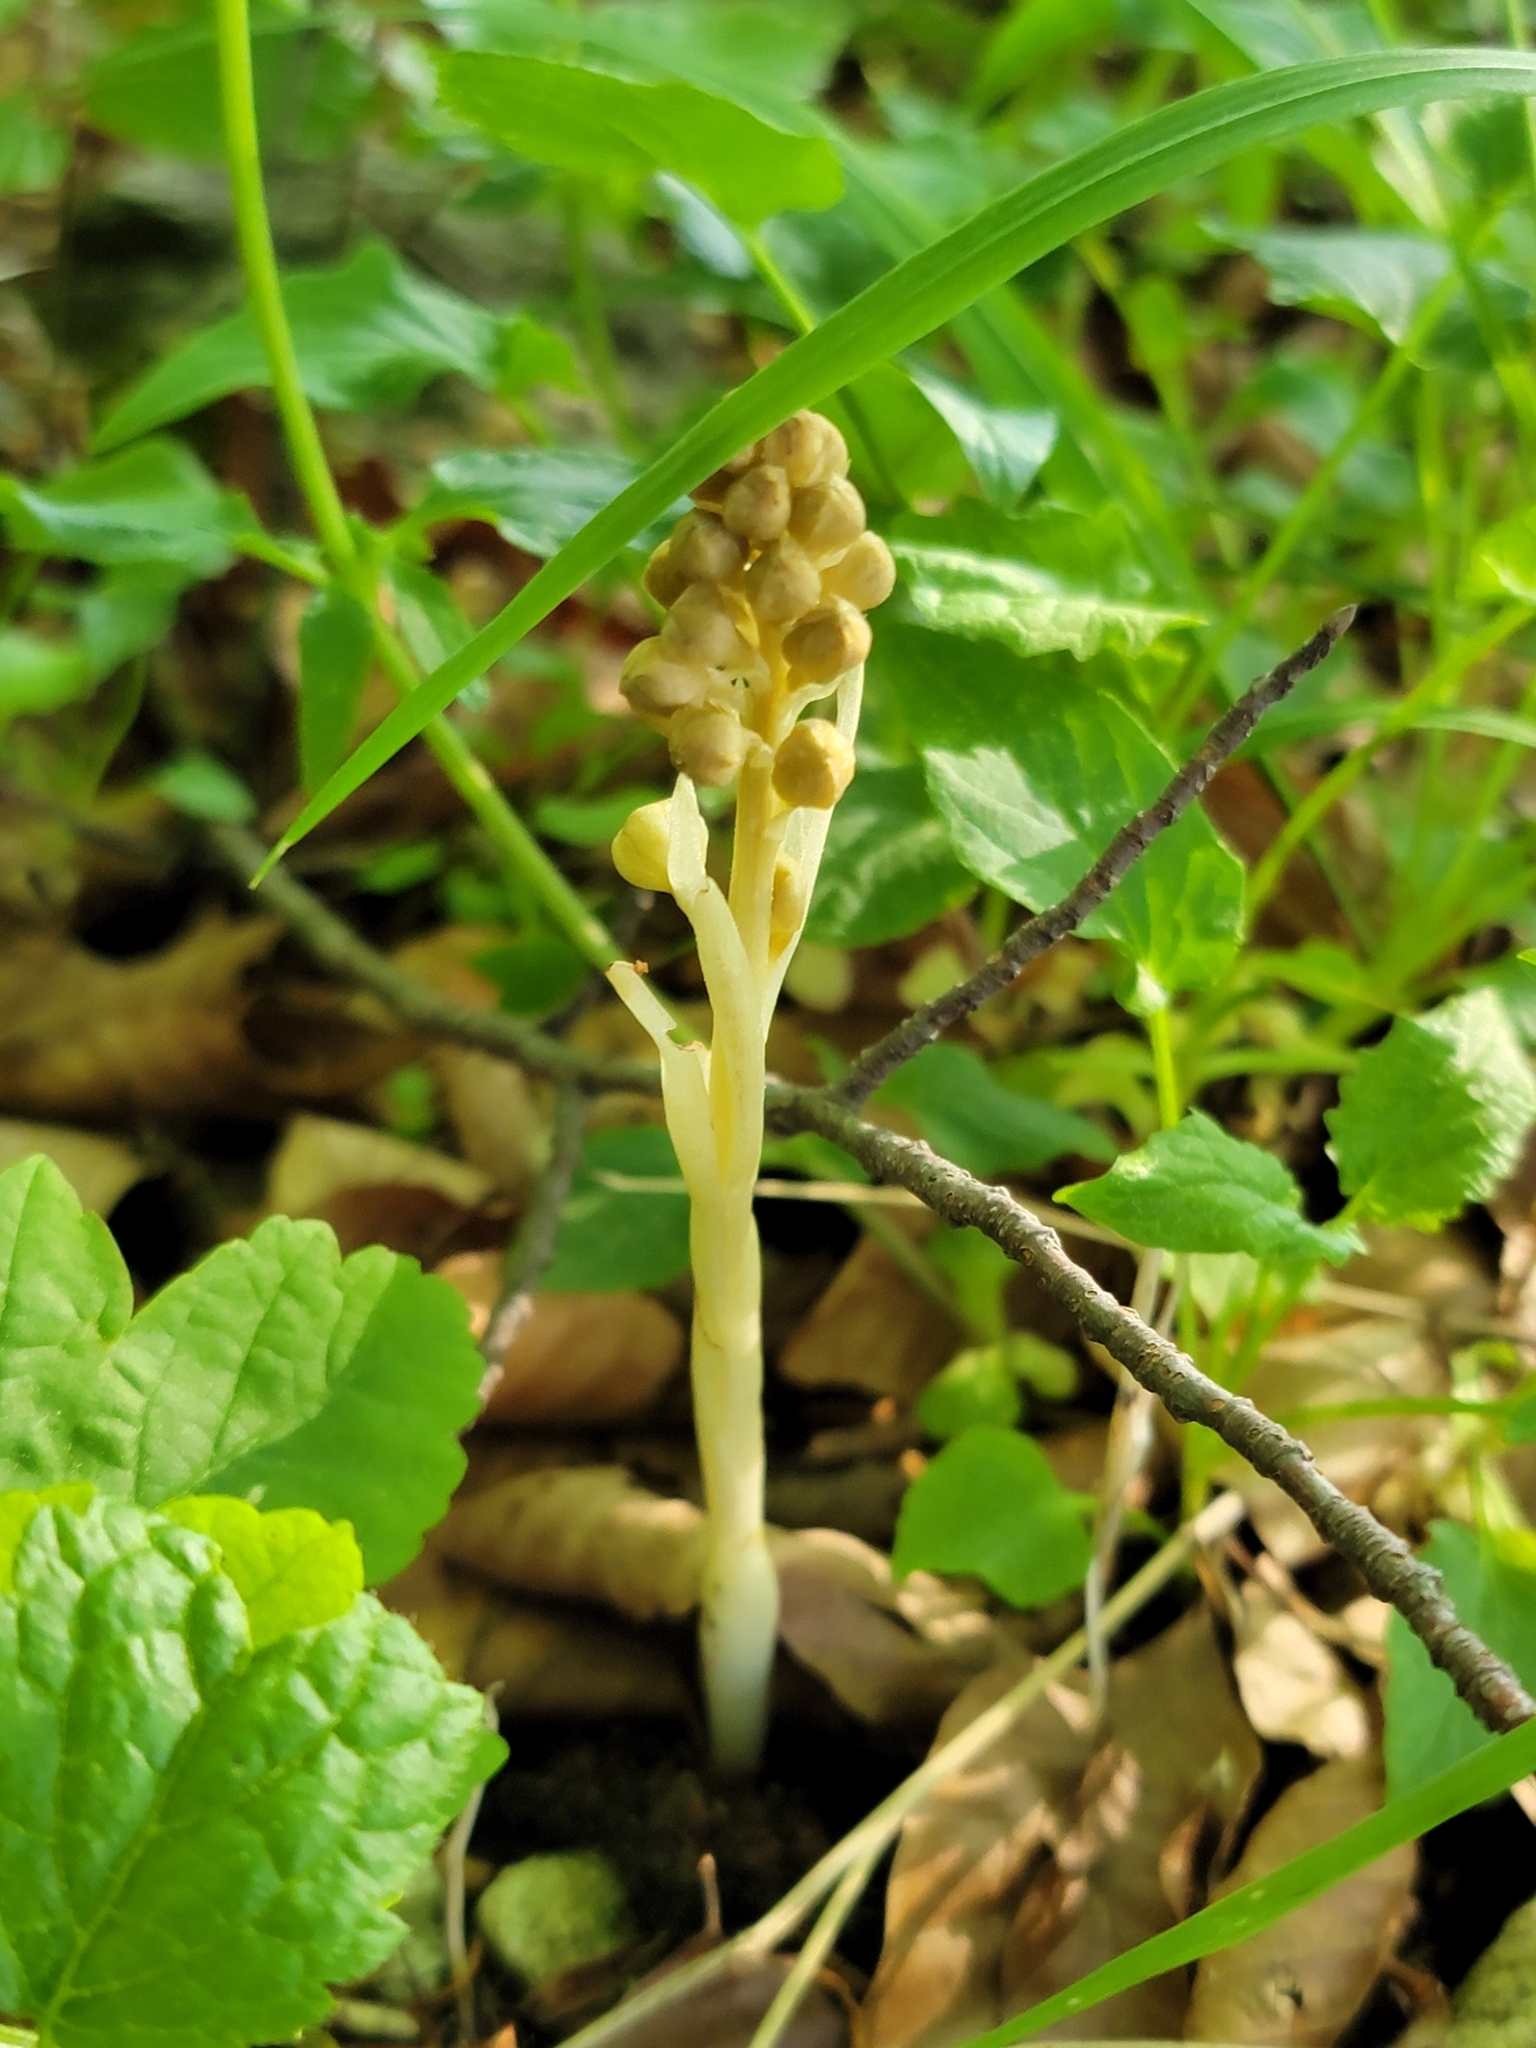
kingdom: Plantae
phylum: Tracheophyta
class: Liliopsida
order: Asparagales
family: Orchidaceae
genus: Neottia
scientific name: Neottia nidus-avis
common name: Bird's-nest orchid
